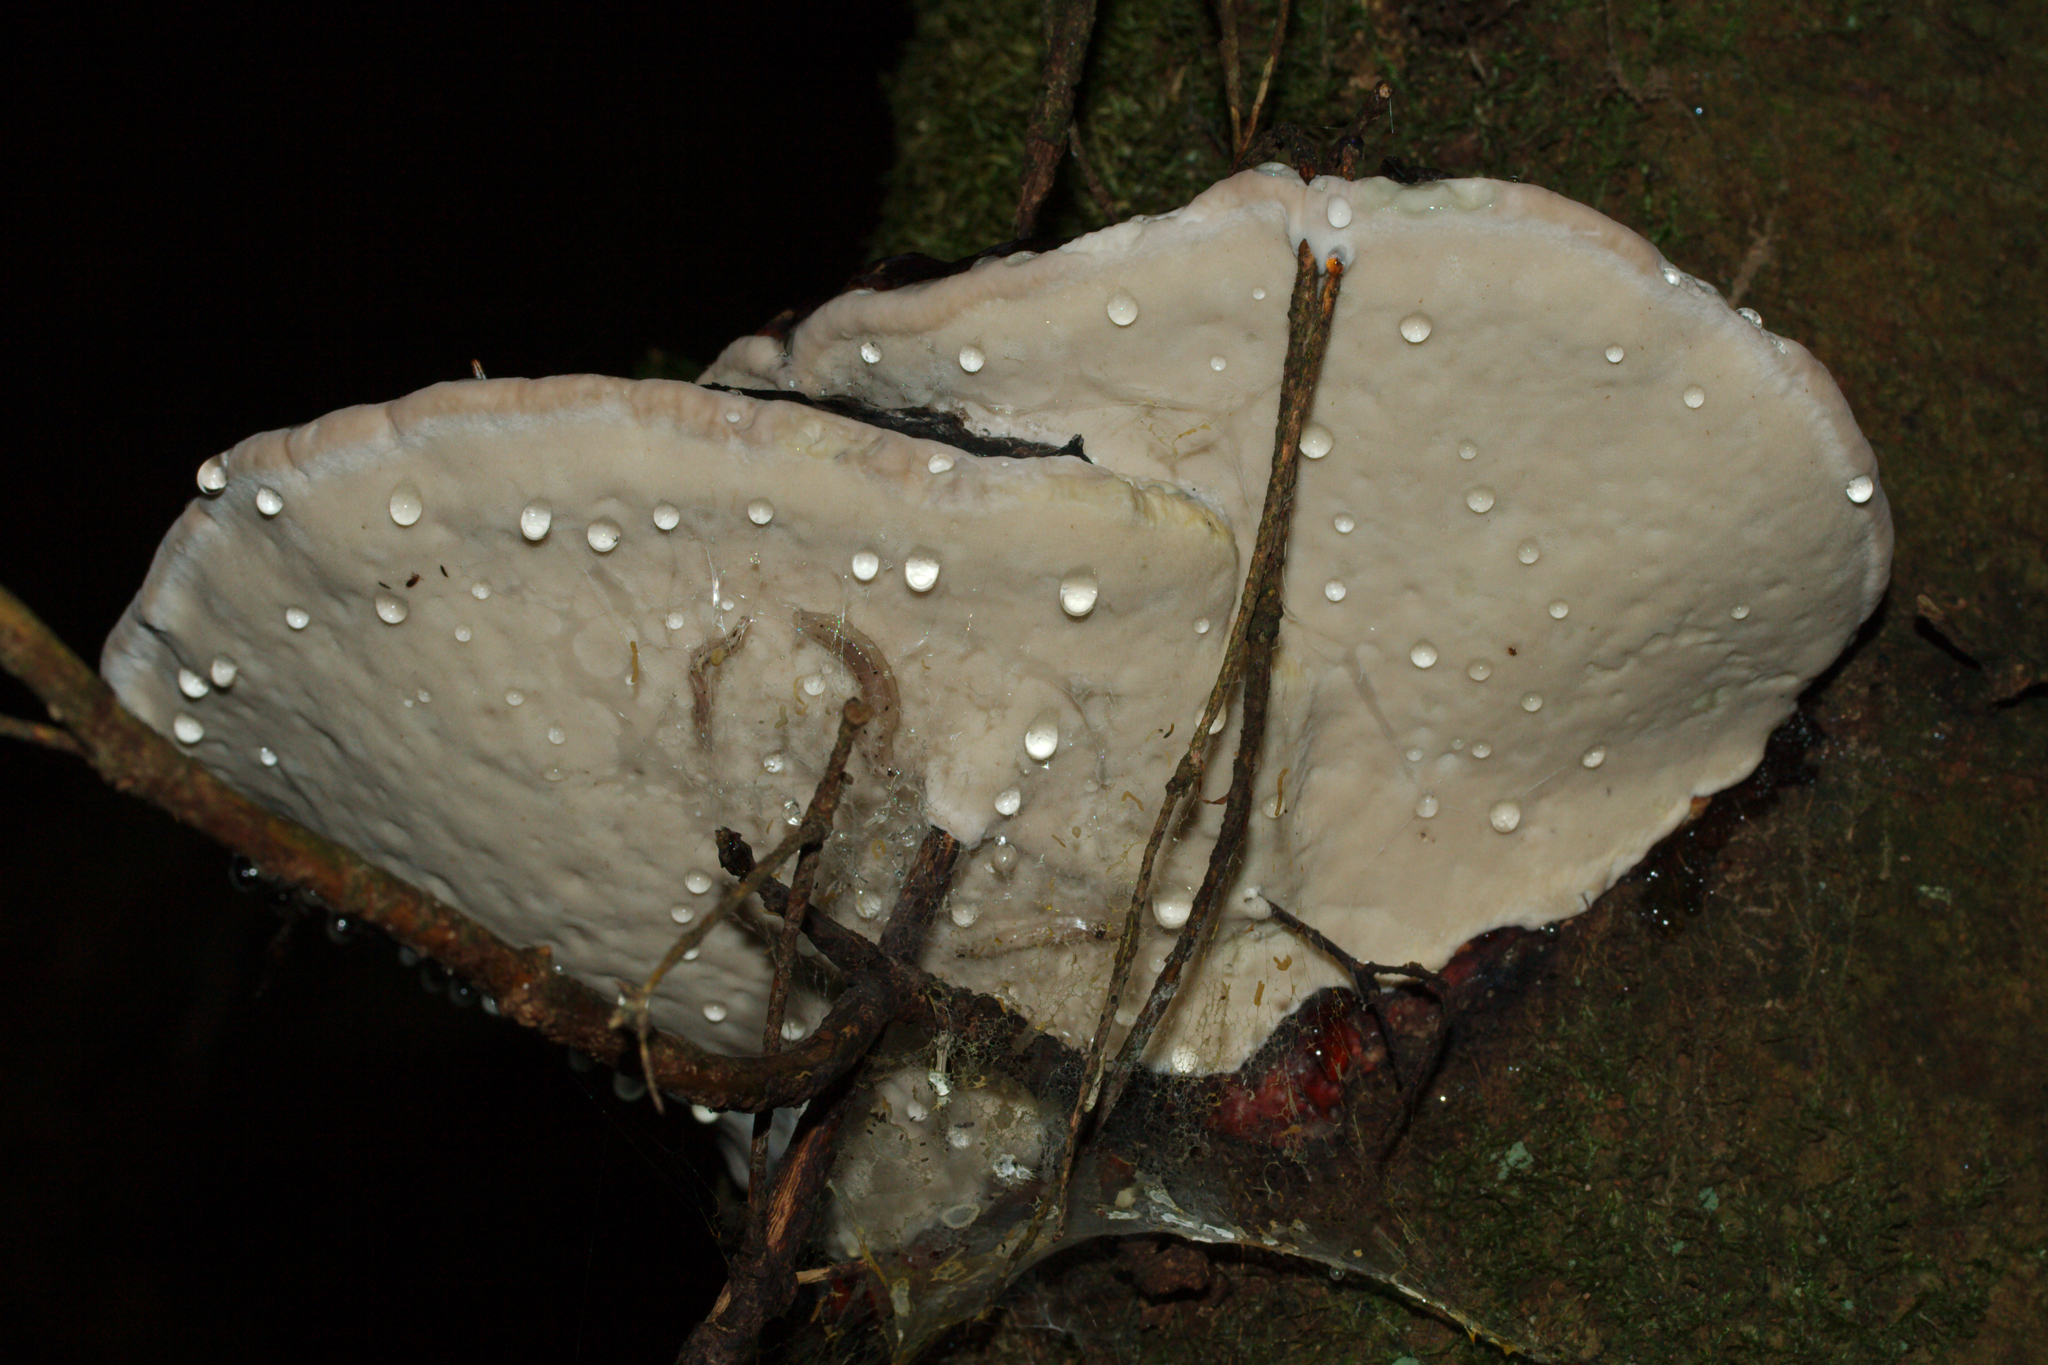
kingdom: Fungi
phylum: Basidiomycota
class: Agaricomycetes
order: Polyporales
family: Fomitopsidaceae
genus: Fomitopsis
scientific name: Fomitopsis pinicola
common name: Red-belted bracket
